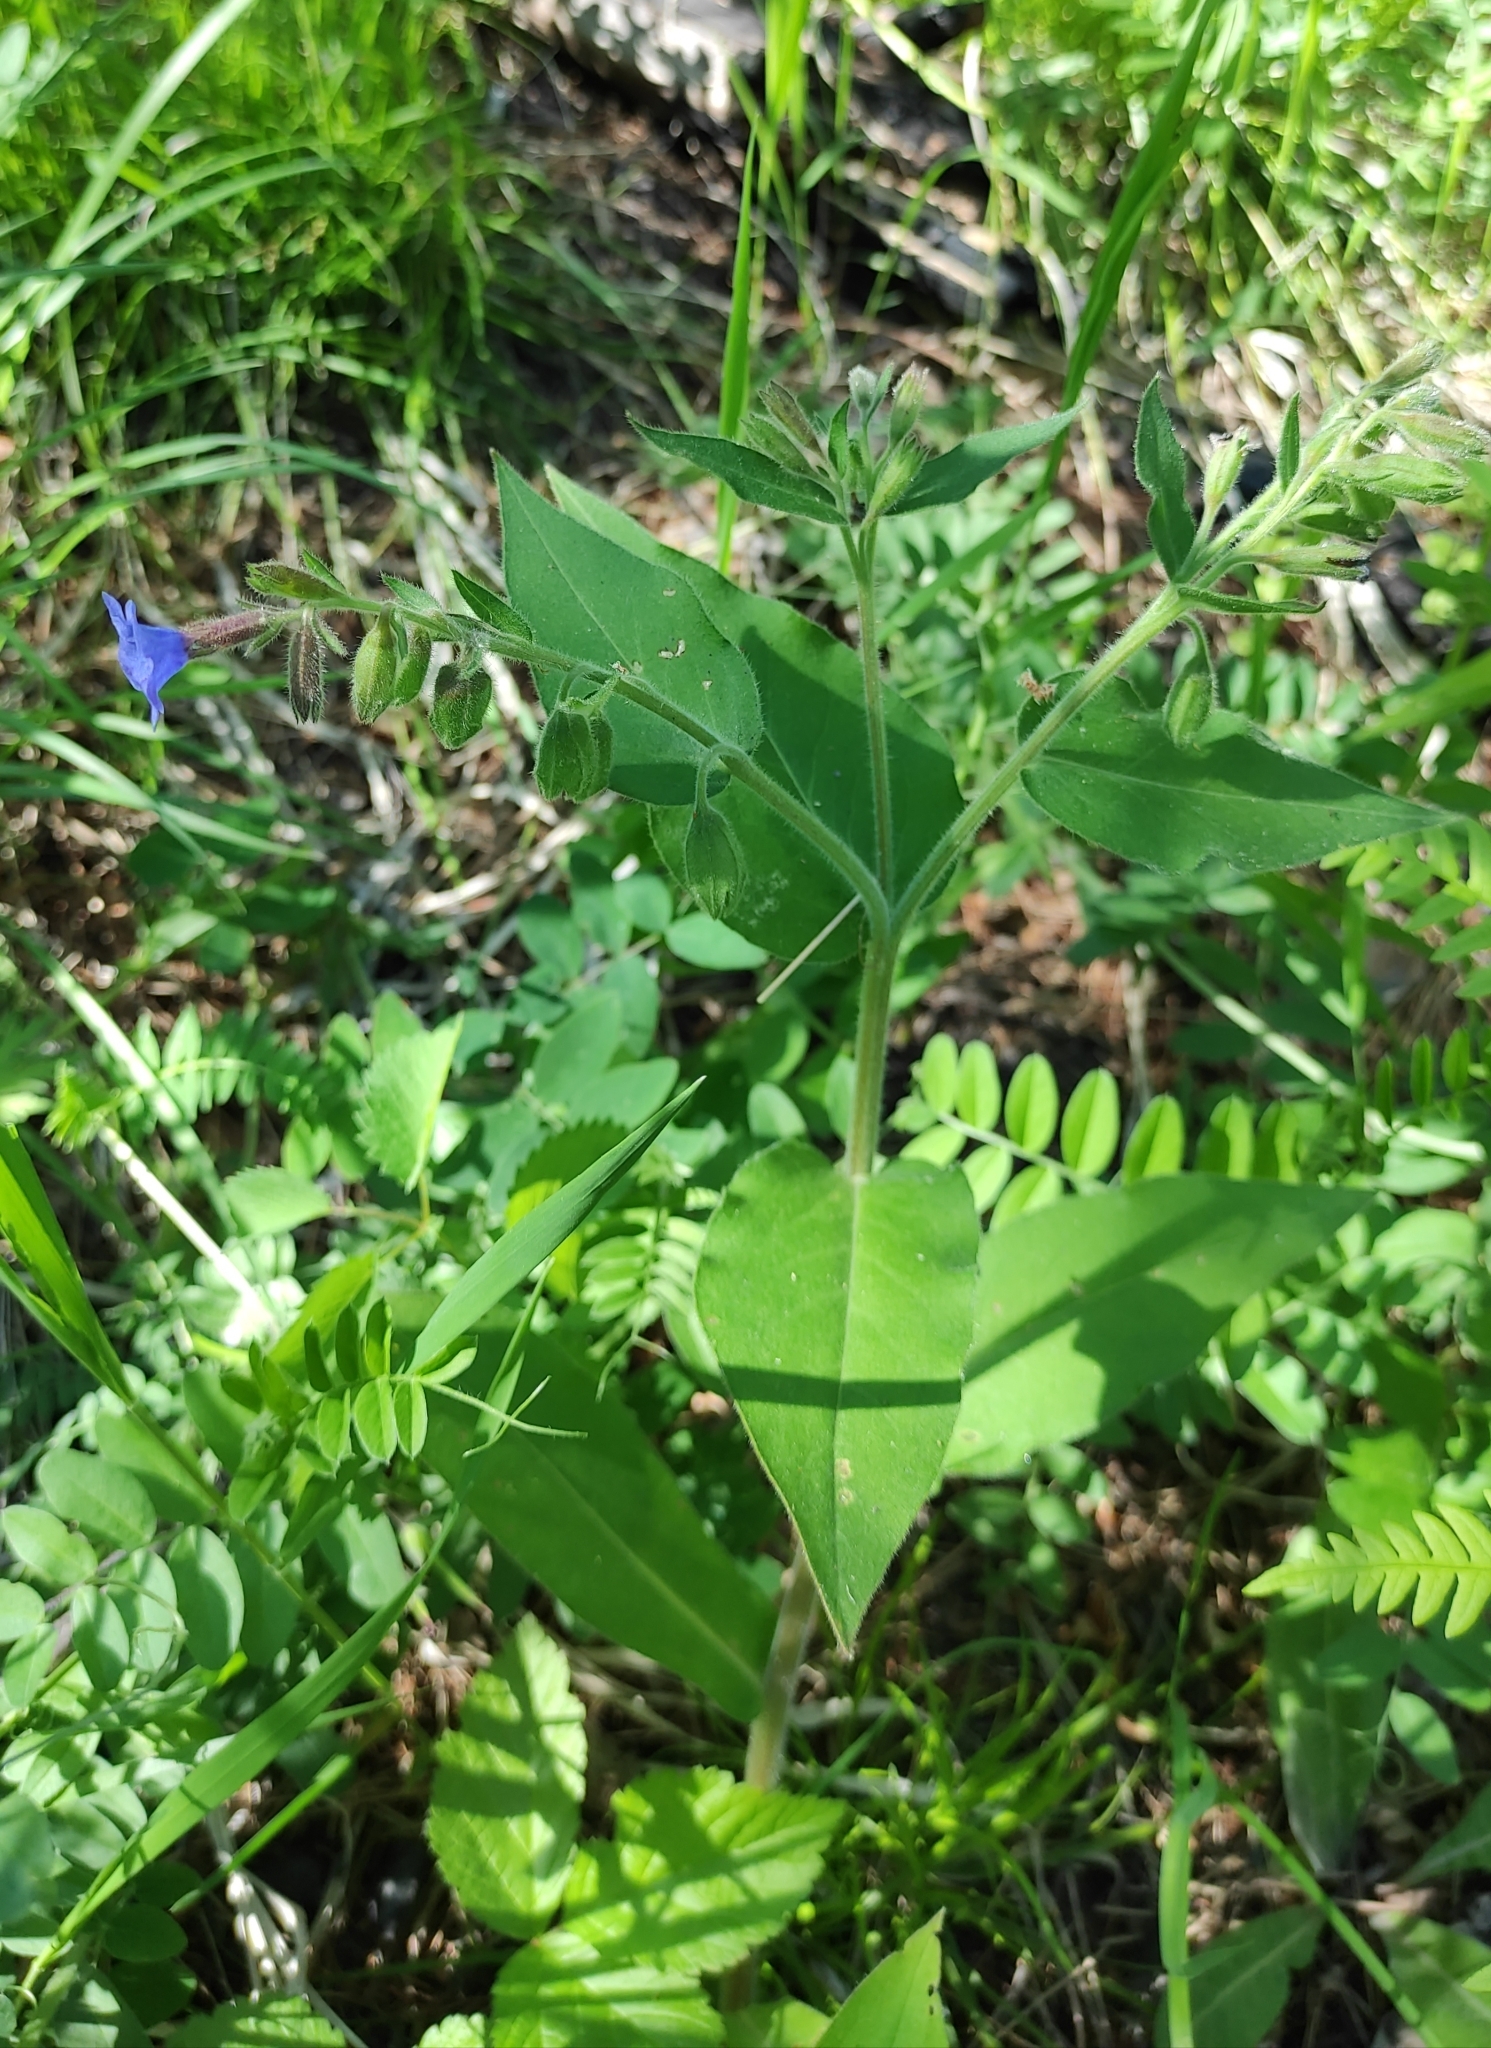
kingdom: Plantae
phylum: Tracheophyta
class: Magnoliopsida
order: Boraginales
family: Boraginaceae
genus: Pulmonaria
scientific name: Pulmonaria mollis
